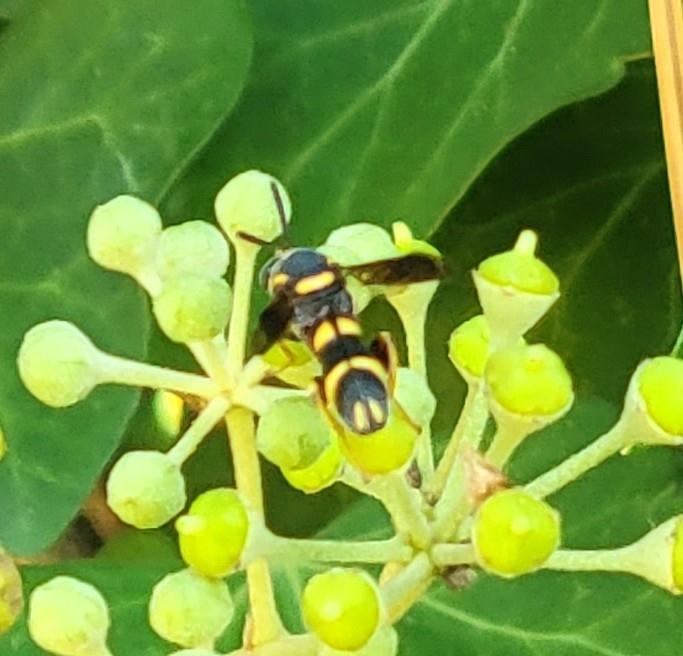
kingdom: Animalia
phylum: Arthropoda
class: Insecta
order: Hymenoptera
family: Leucospidae
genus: Leucospis
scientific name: Leucospis affinis
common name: Wasp
